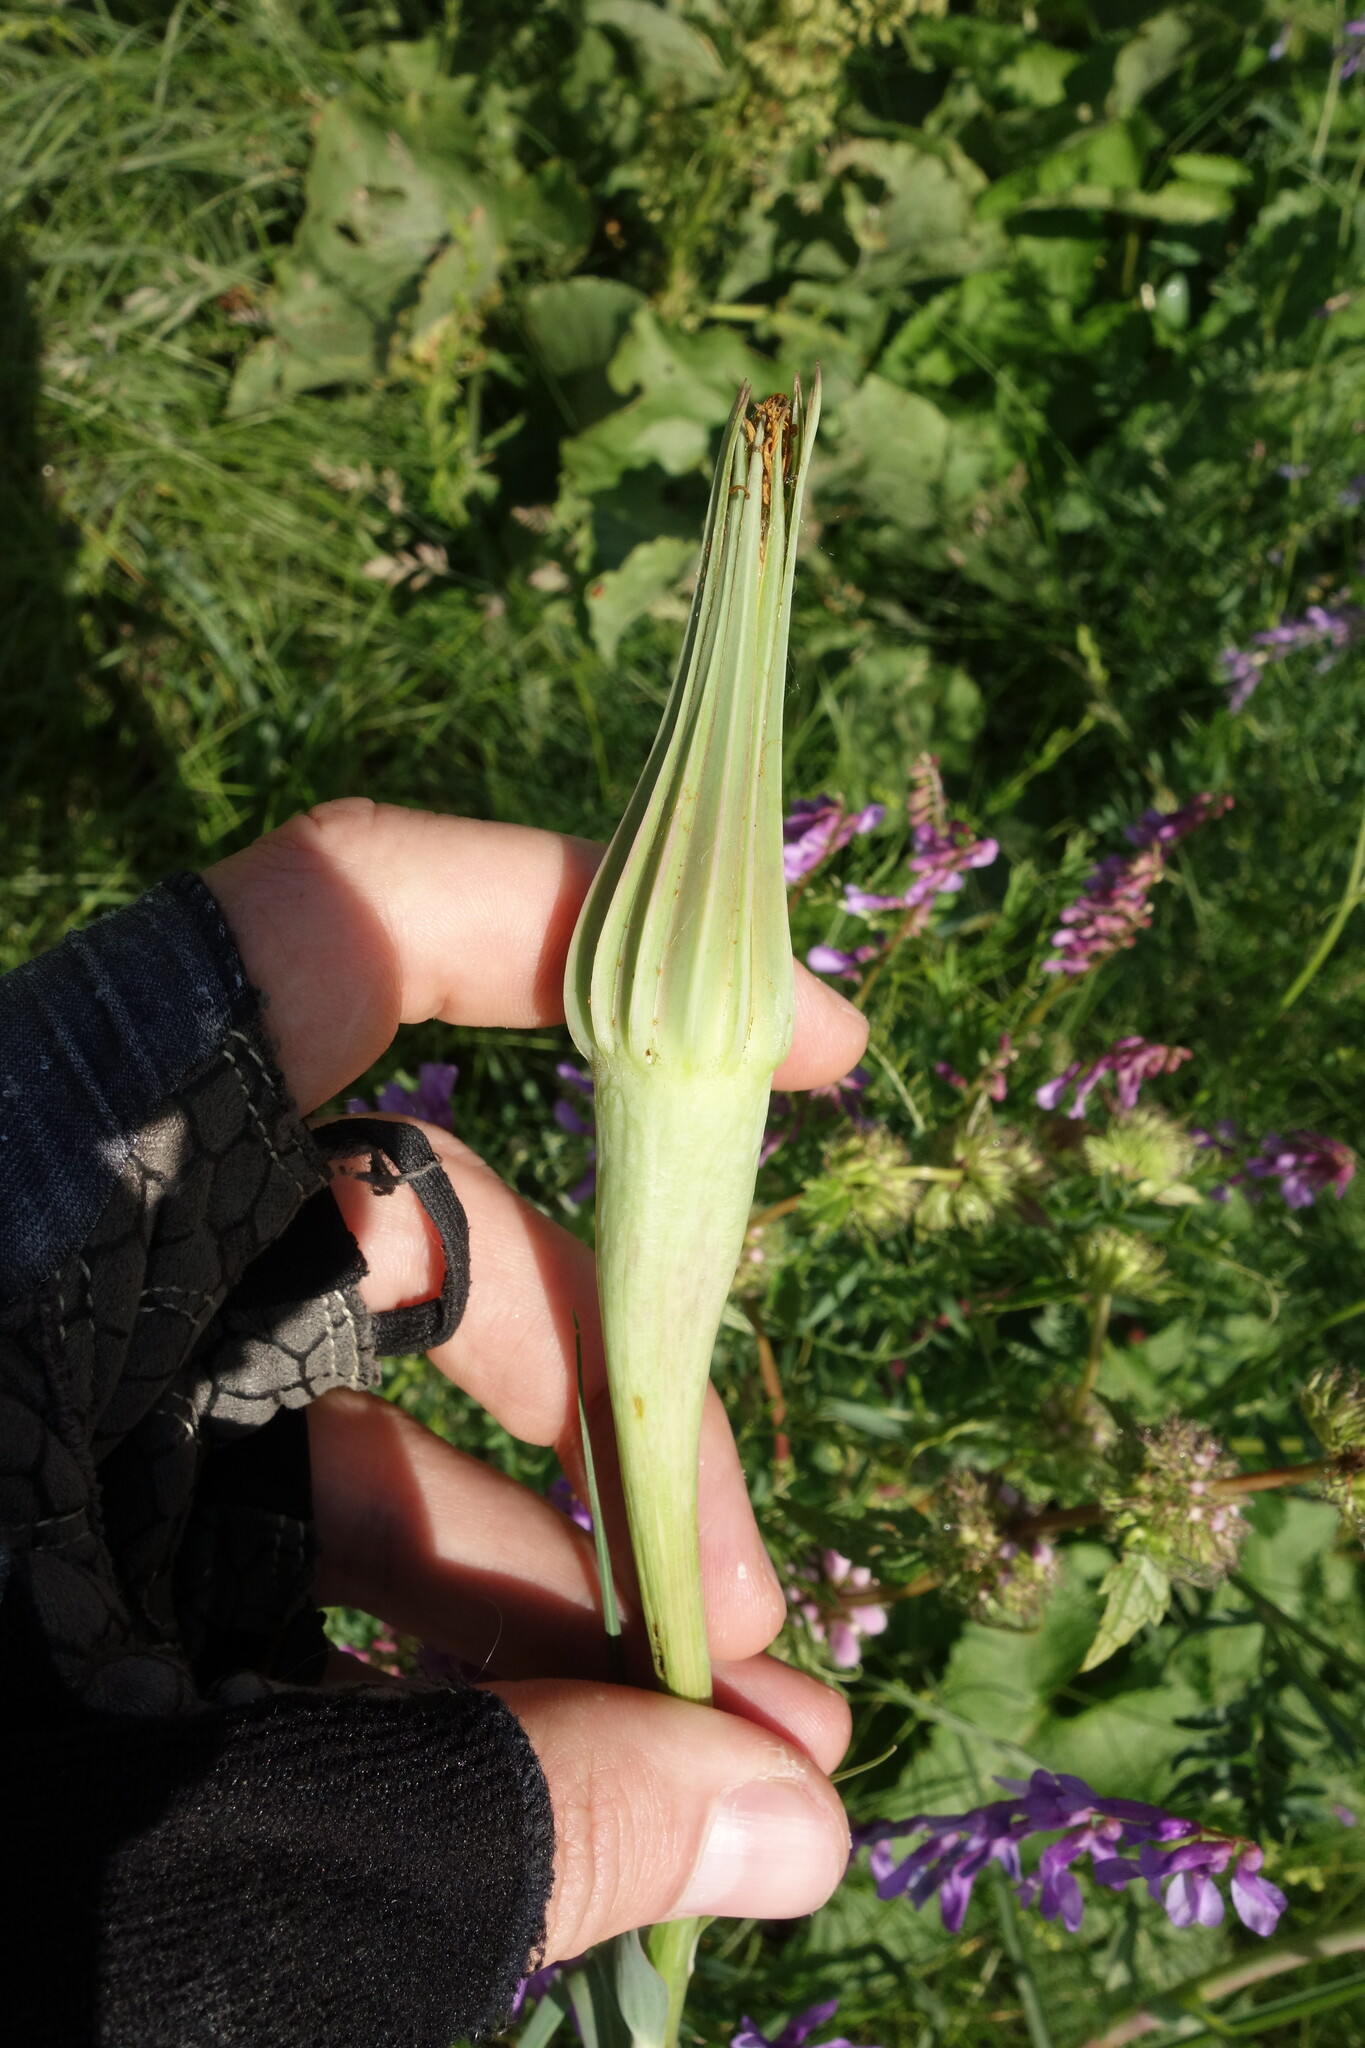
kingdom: Plantae
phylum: Tracheophyta
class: Magnoliopsida
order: Asterales
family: Asteraceae
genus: Tragopogon
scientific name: Tragopogon dubius
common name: Yellow salsify
